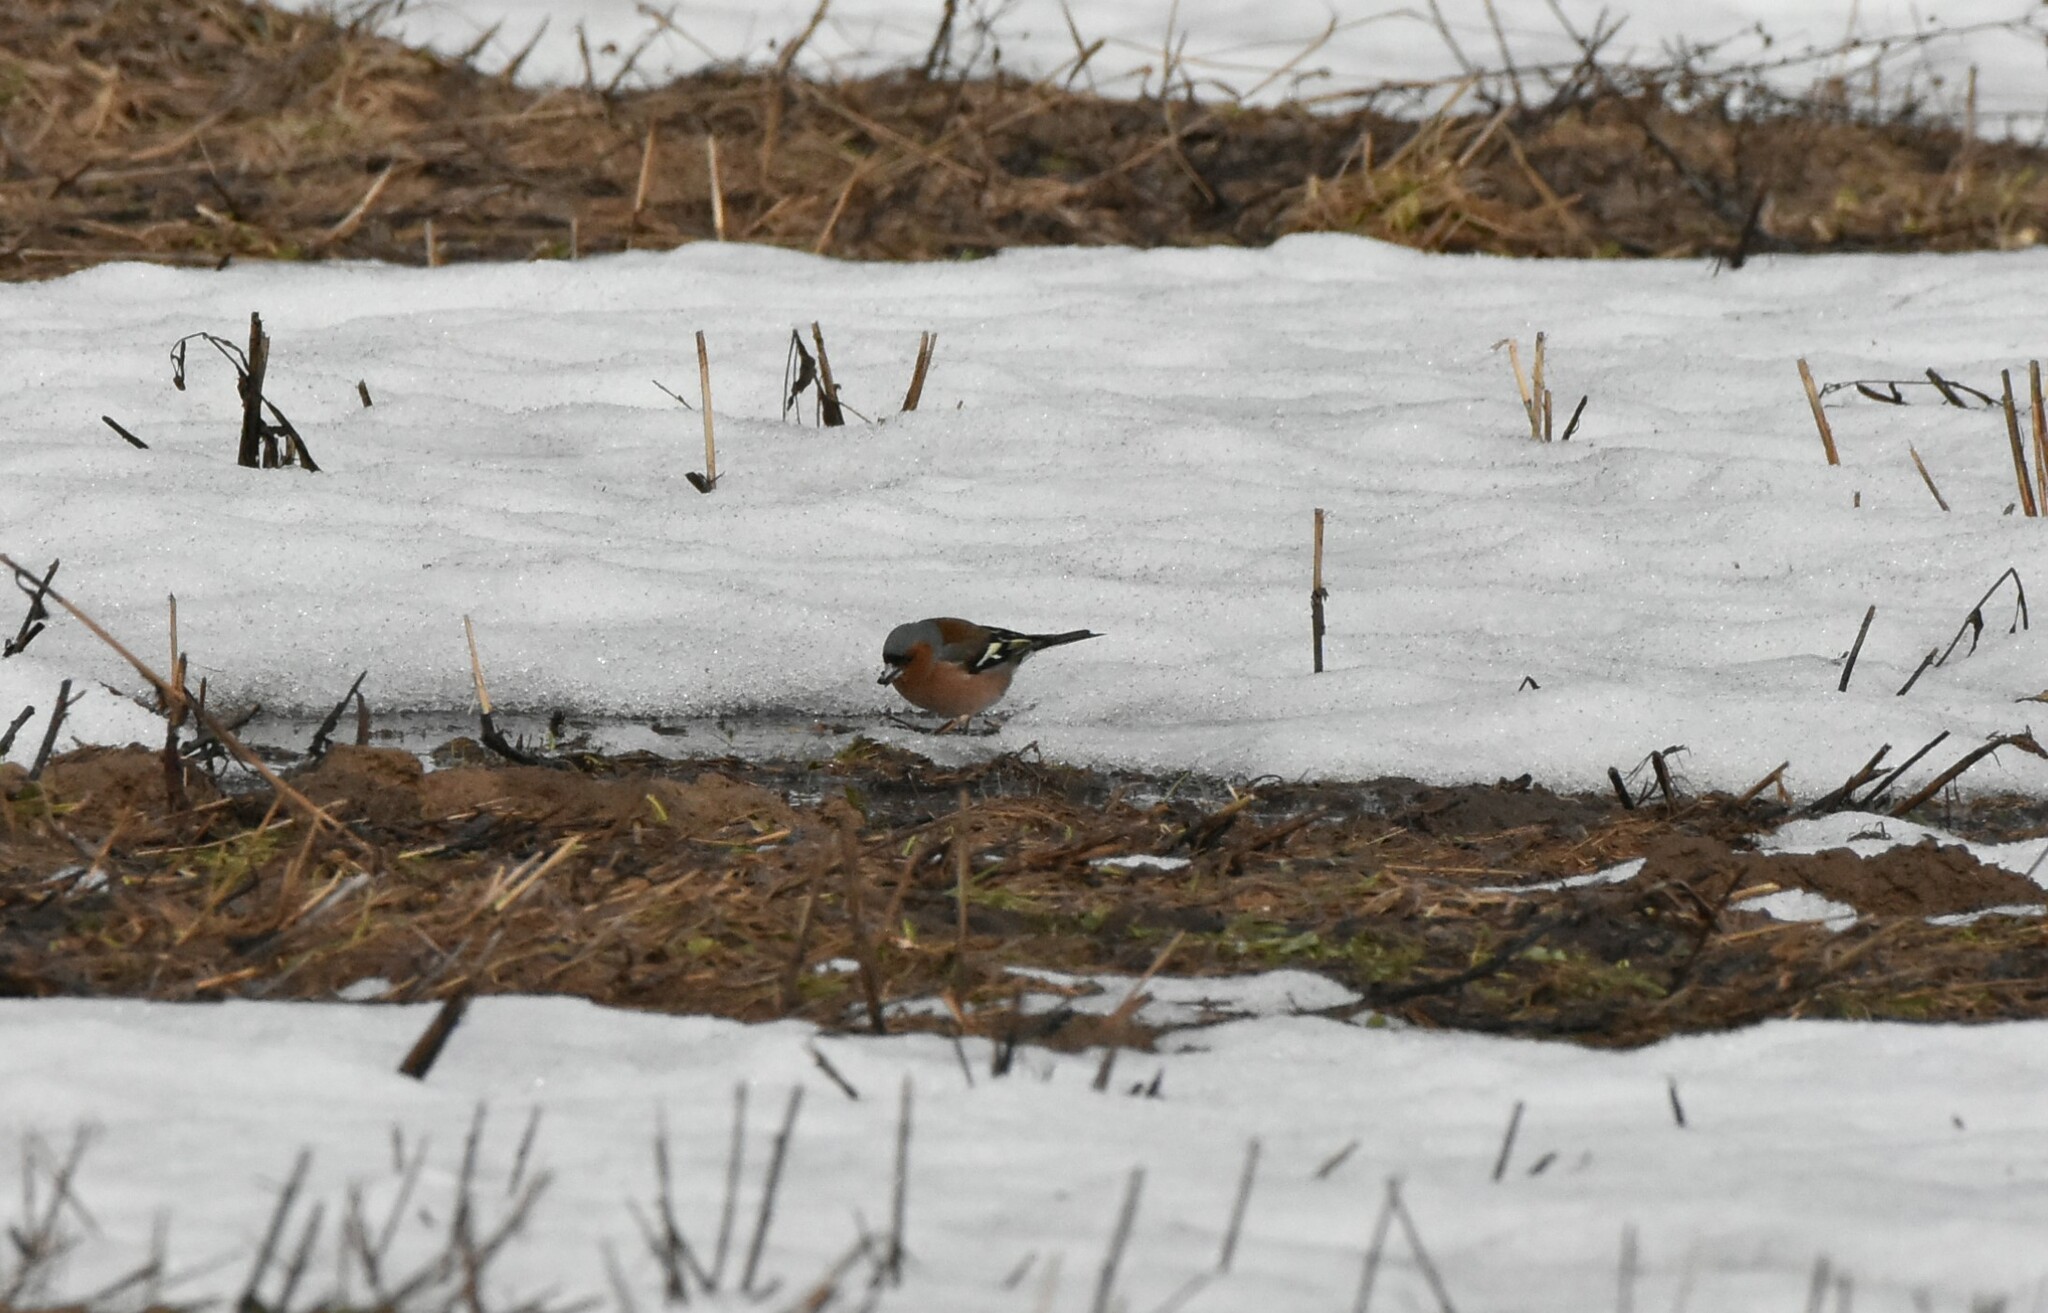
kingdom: Animalia
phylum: Chordata
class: Aves
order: Passeriformes
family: Fringillidae
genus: Fringilla
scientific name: Fringilla coelebs
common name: Common chaffinch
